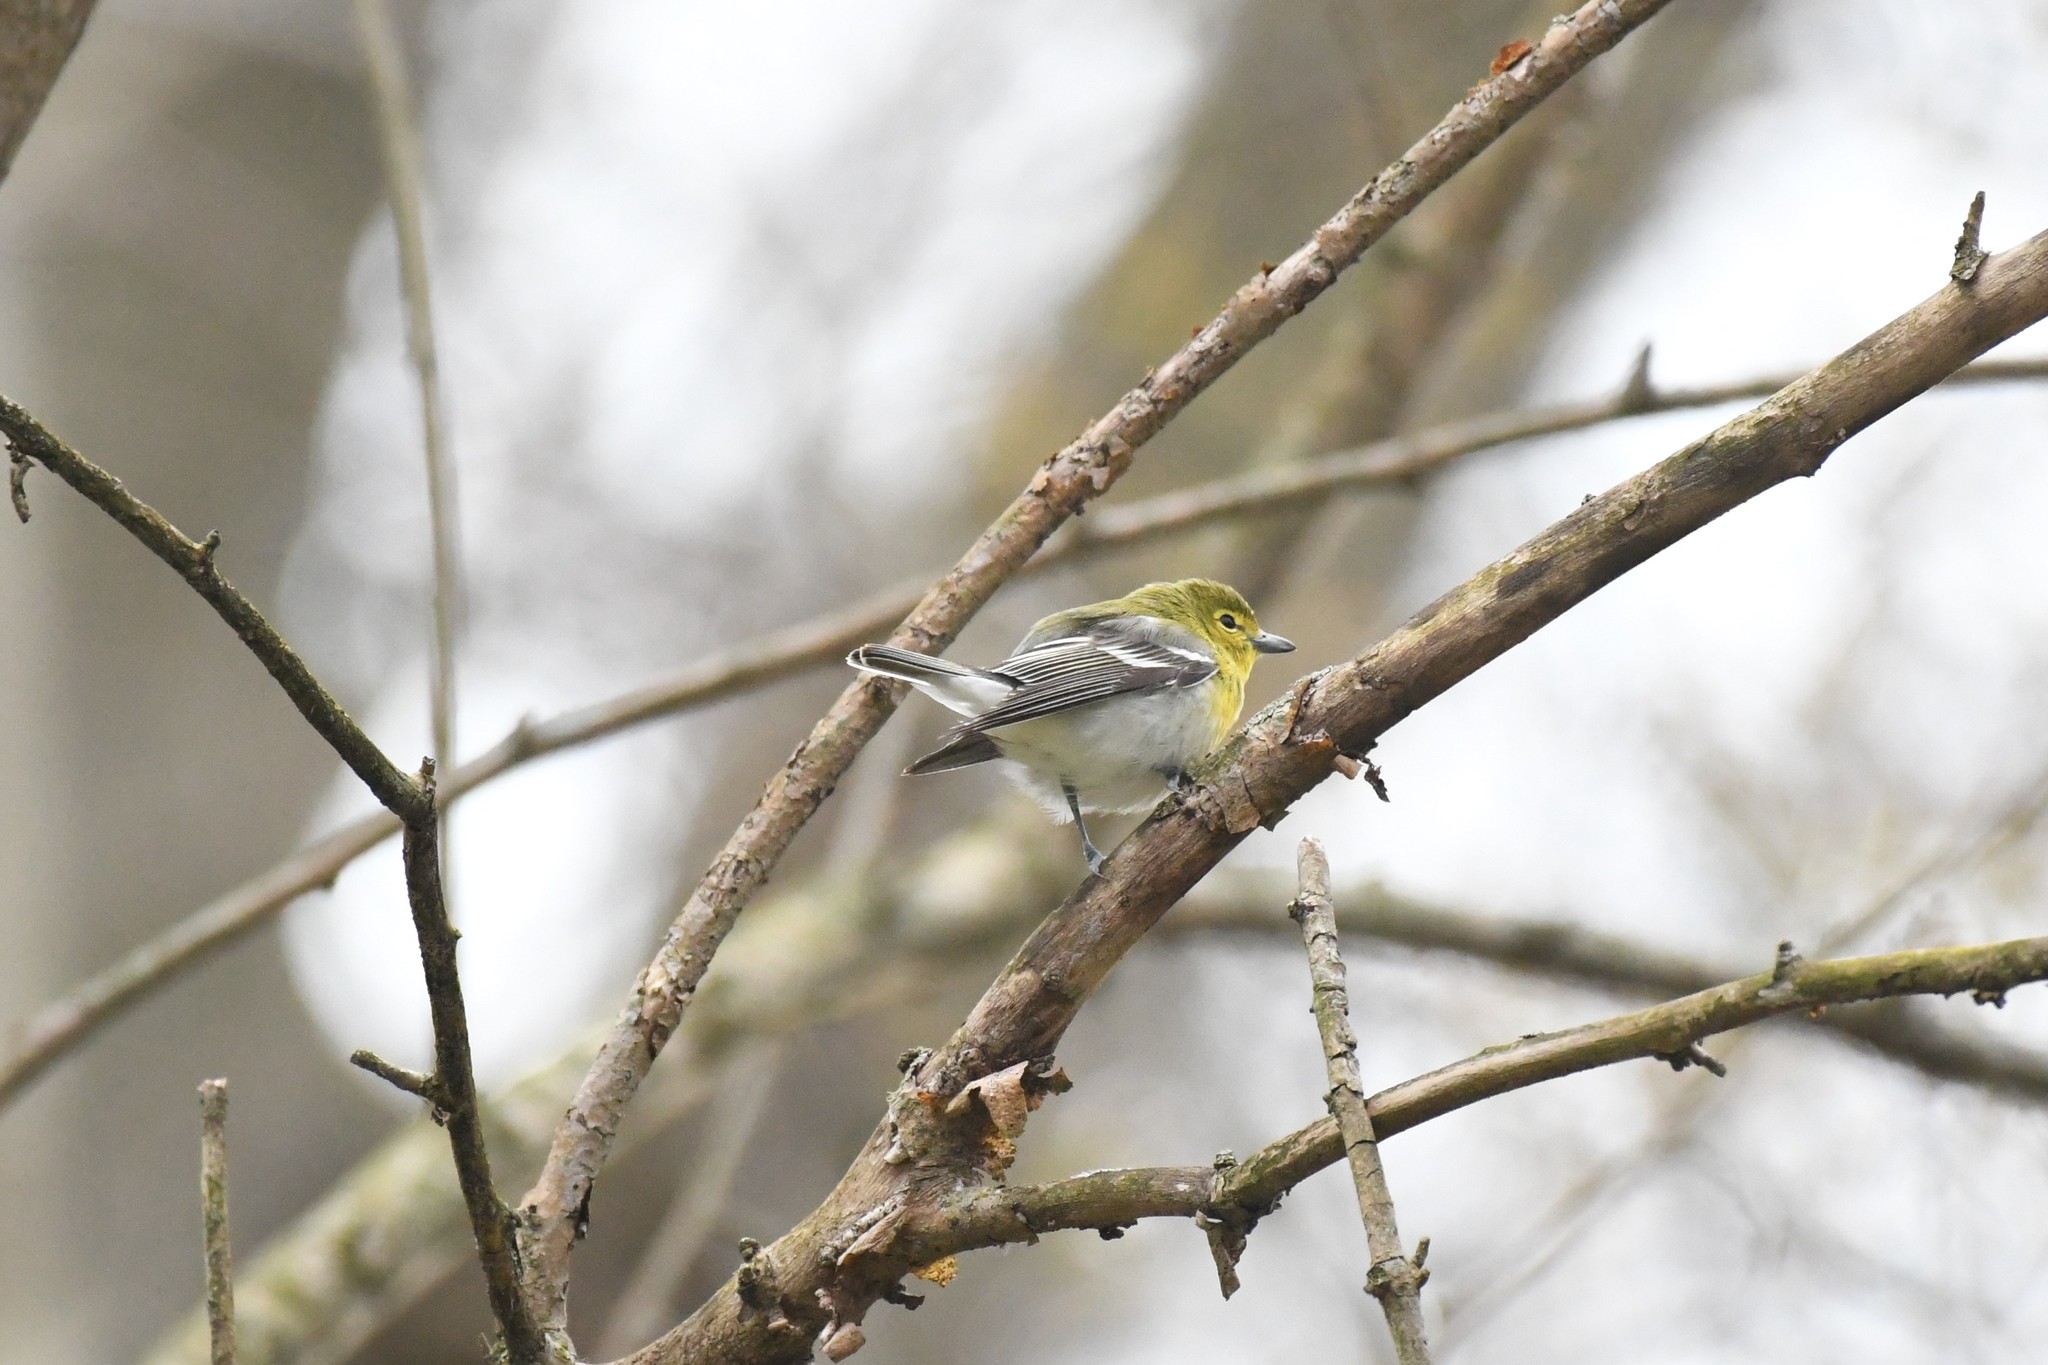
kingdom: Animalia
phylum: Chordata
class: Aves
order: Passeriformes
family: Vireonidae
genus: Vireo
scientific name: Vireo flavifrons
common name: Yellow-throated vireo
